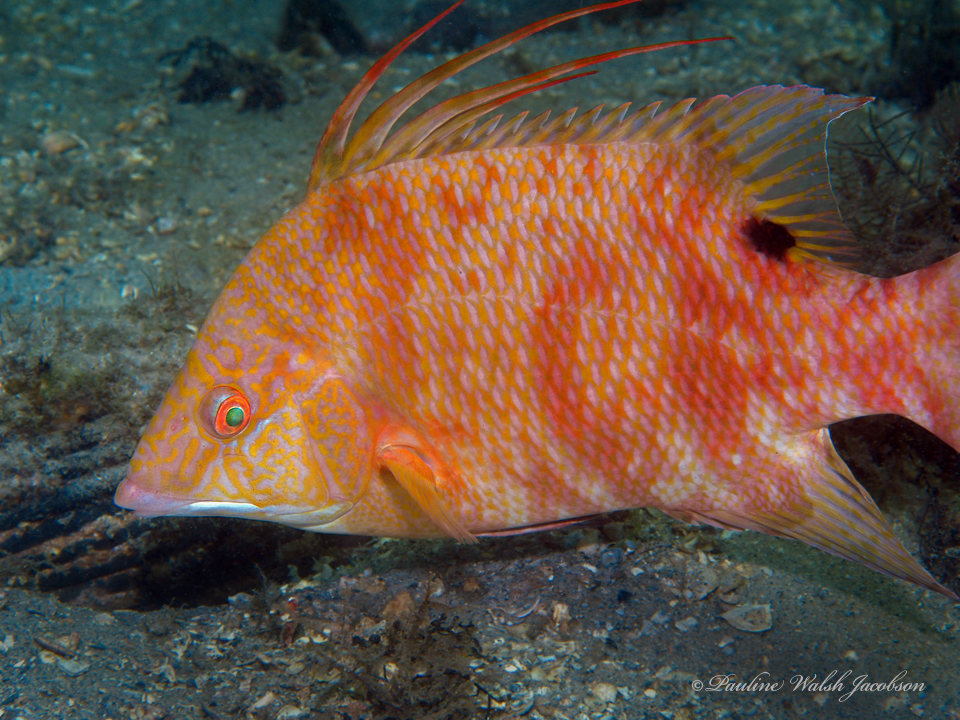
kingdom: Animalia
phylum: Chordata
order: Perciformes
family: Labridae
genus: Lachnolaimus
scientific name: Lachnolaimus maximus
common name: Hogfish
